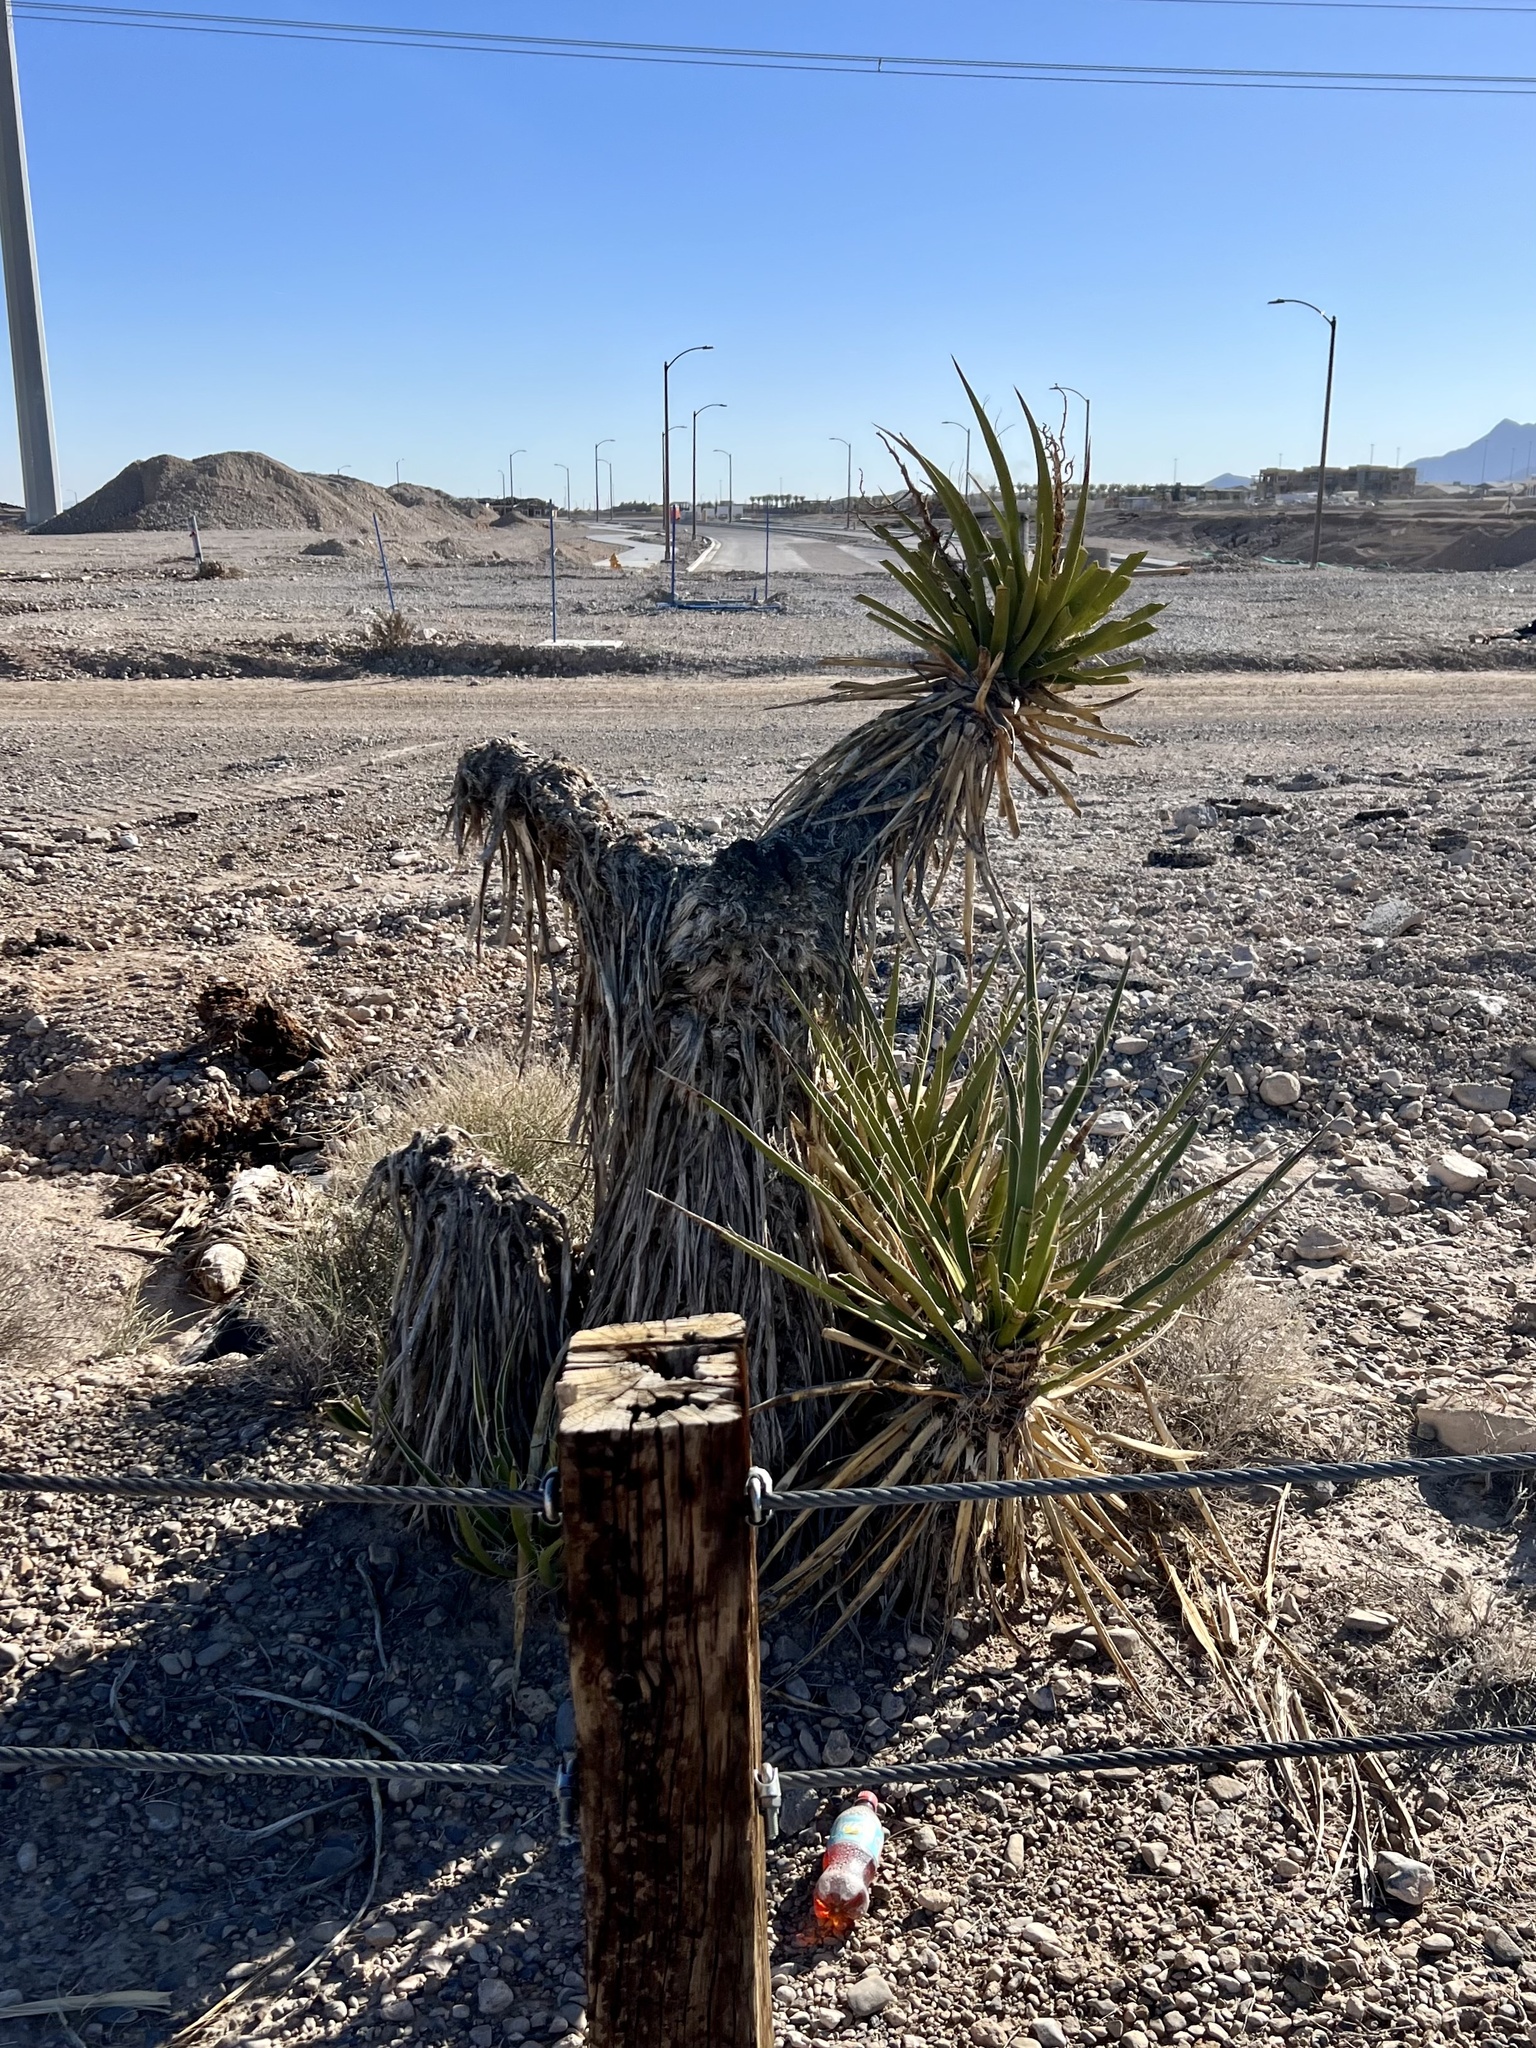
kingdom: Plantae
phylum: Tracheophyta
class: Liliopsida
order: Asparagales
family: Asparagaceae
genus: Yucca
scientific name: Yucca schidigera
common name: Mojave yucca
